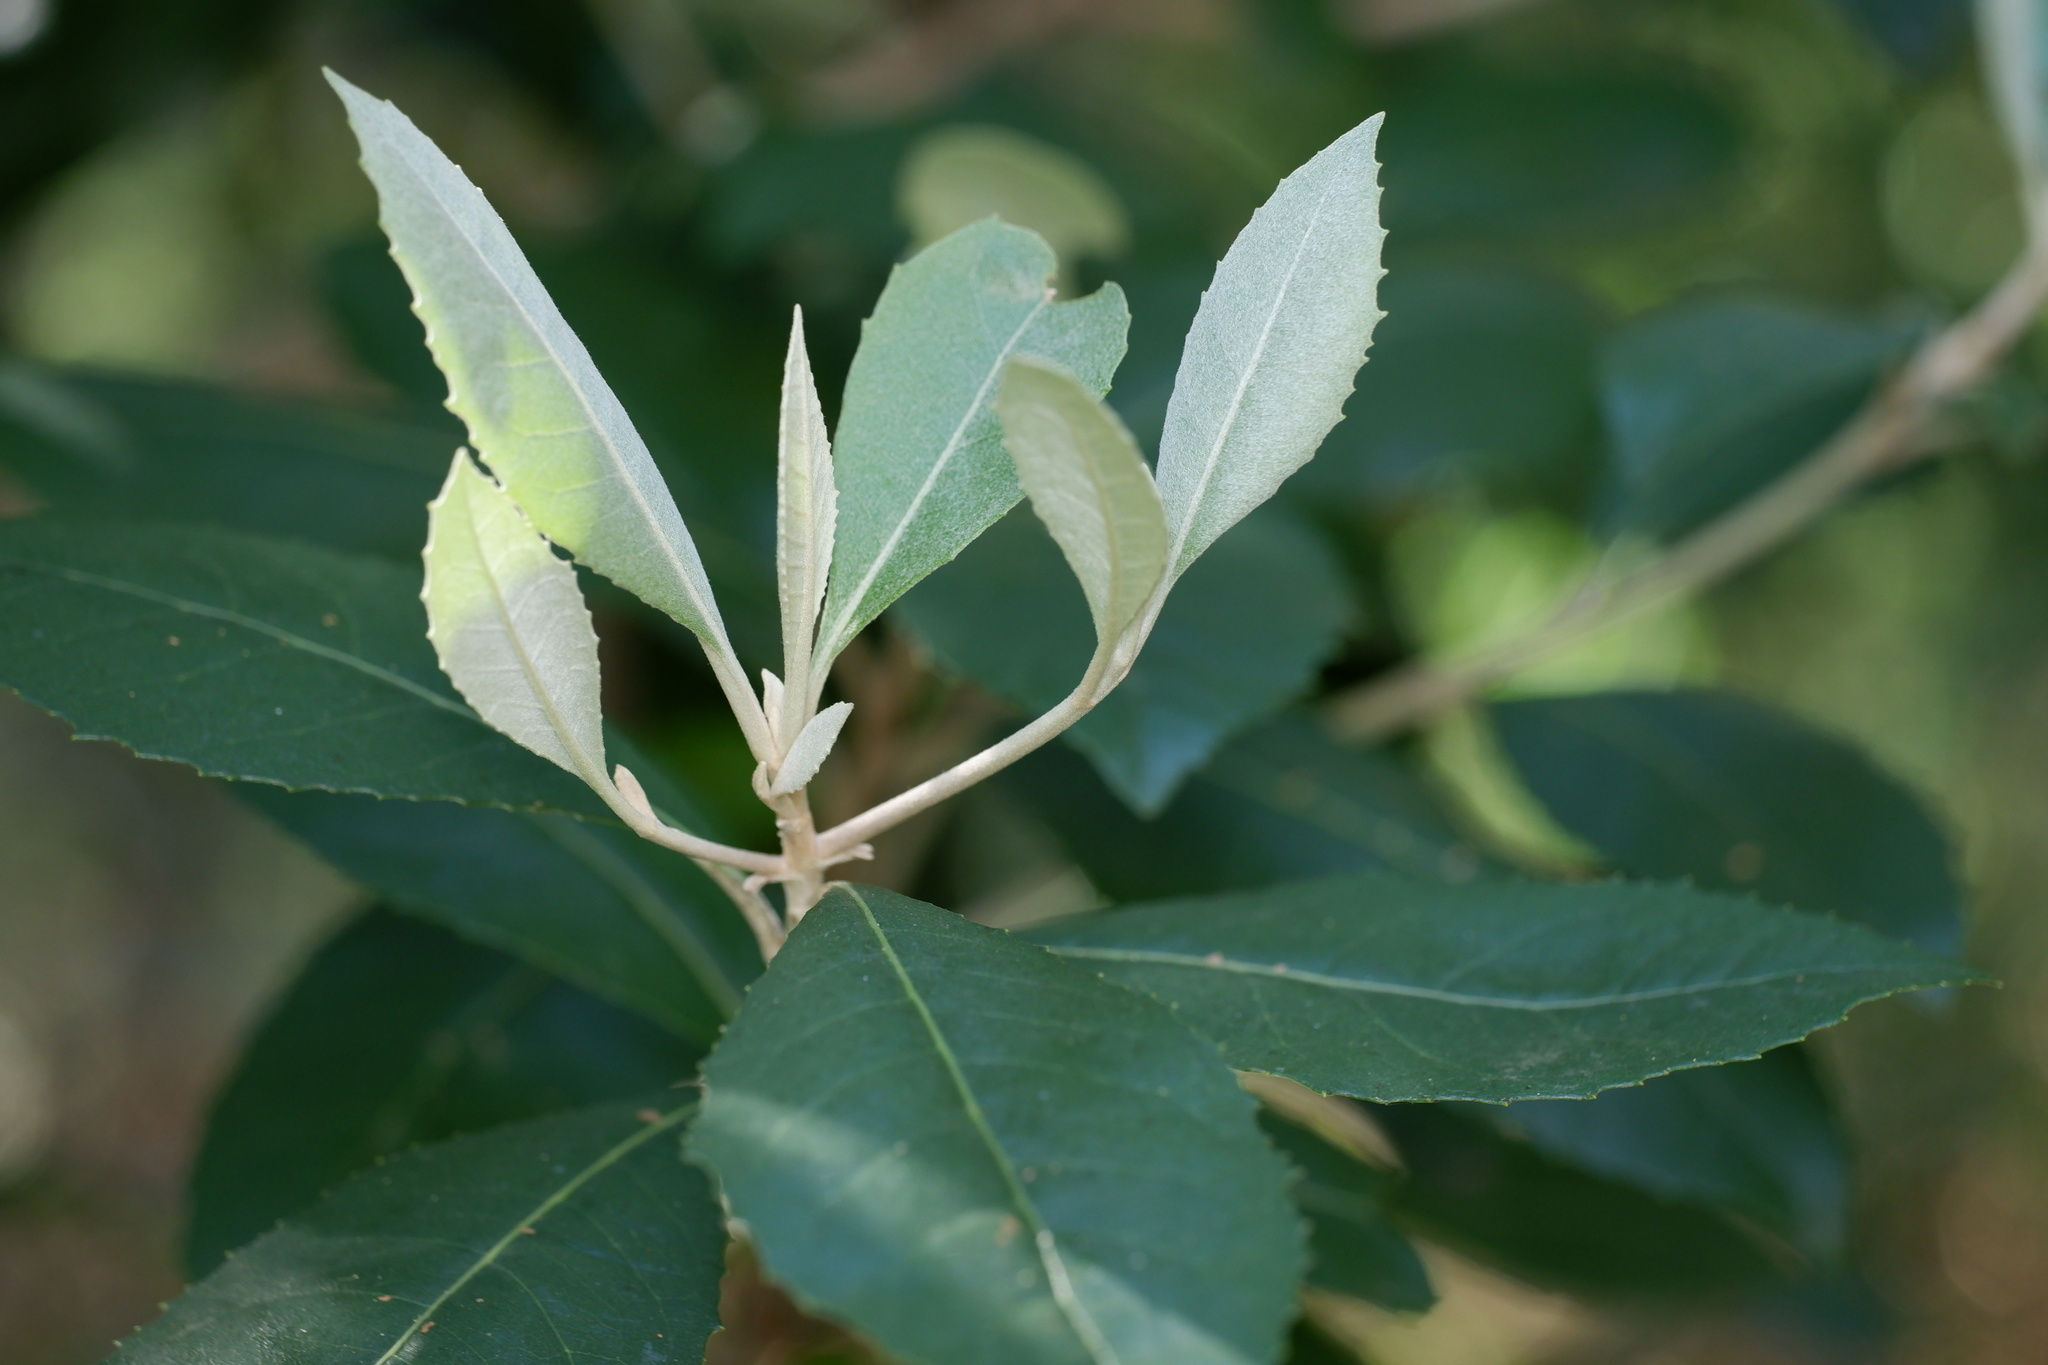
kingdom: Plantae
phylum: Tracheophyta
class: Magnoliopsida
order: Asterales
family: Asteraceae
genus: Olearia
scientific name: Olearia argophylla
